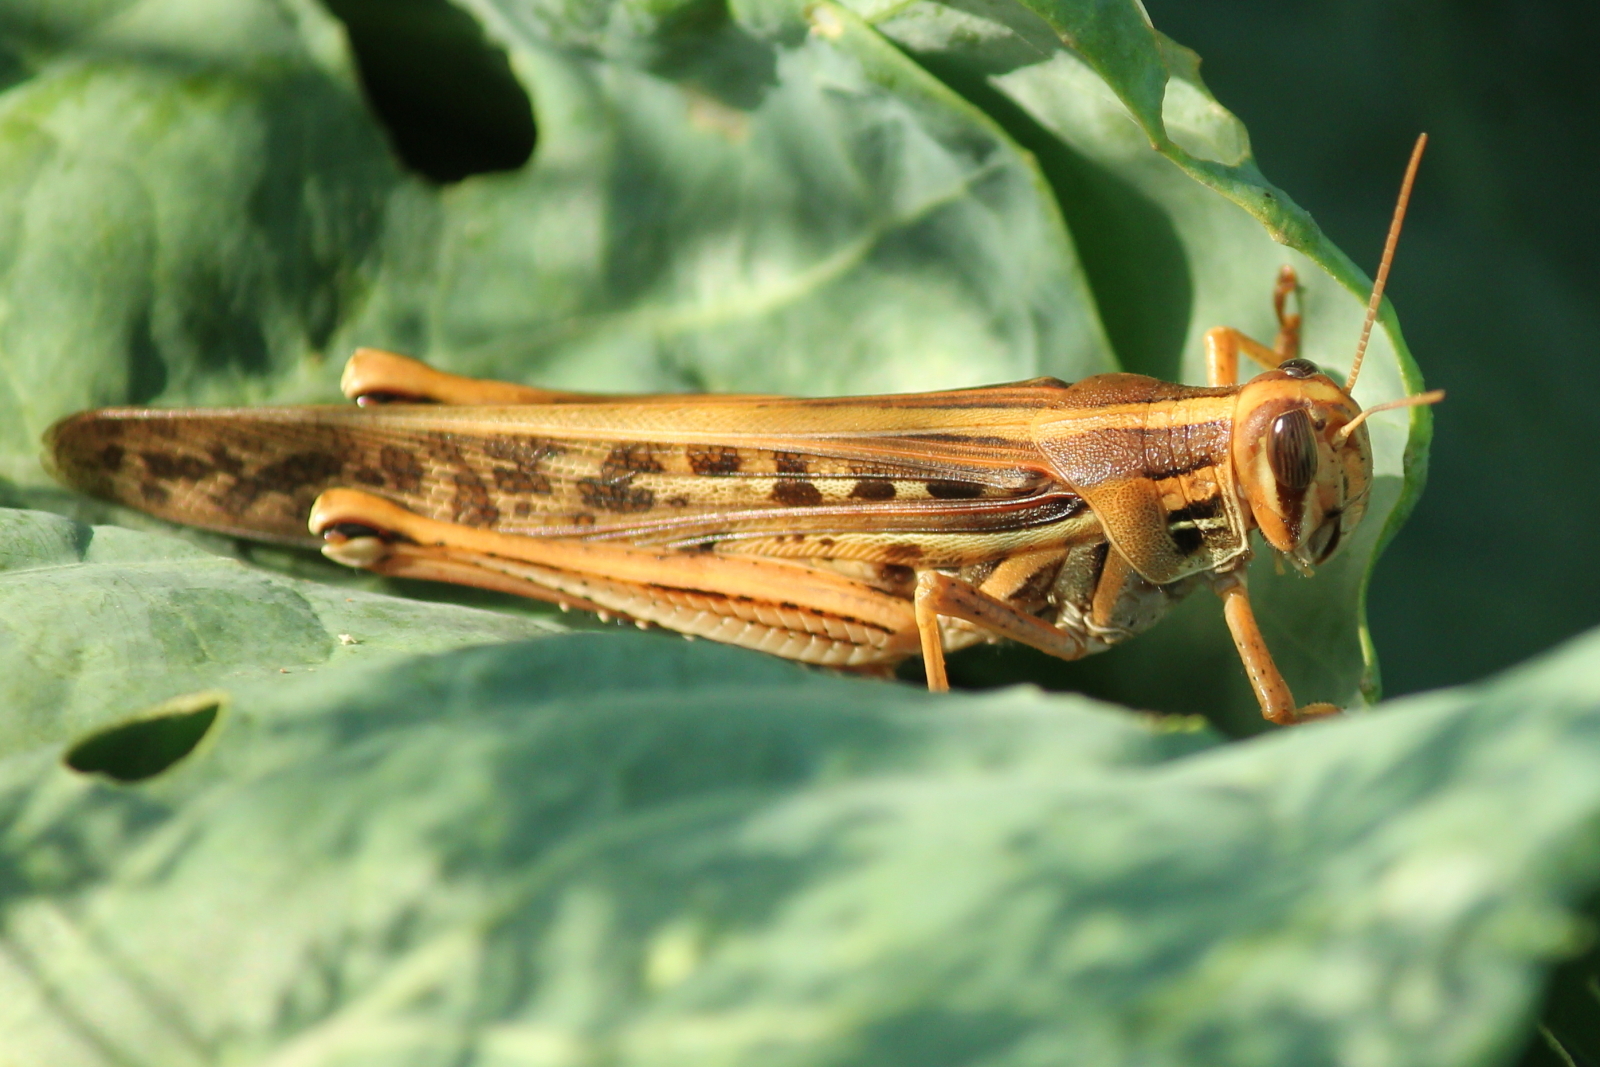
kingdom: Animalia
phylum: Arthropoda
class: Insecta
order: Orthoptera
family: Acrididae
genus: Schistocerca
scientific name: Schistocerca americana
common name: American bird locust
